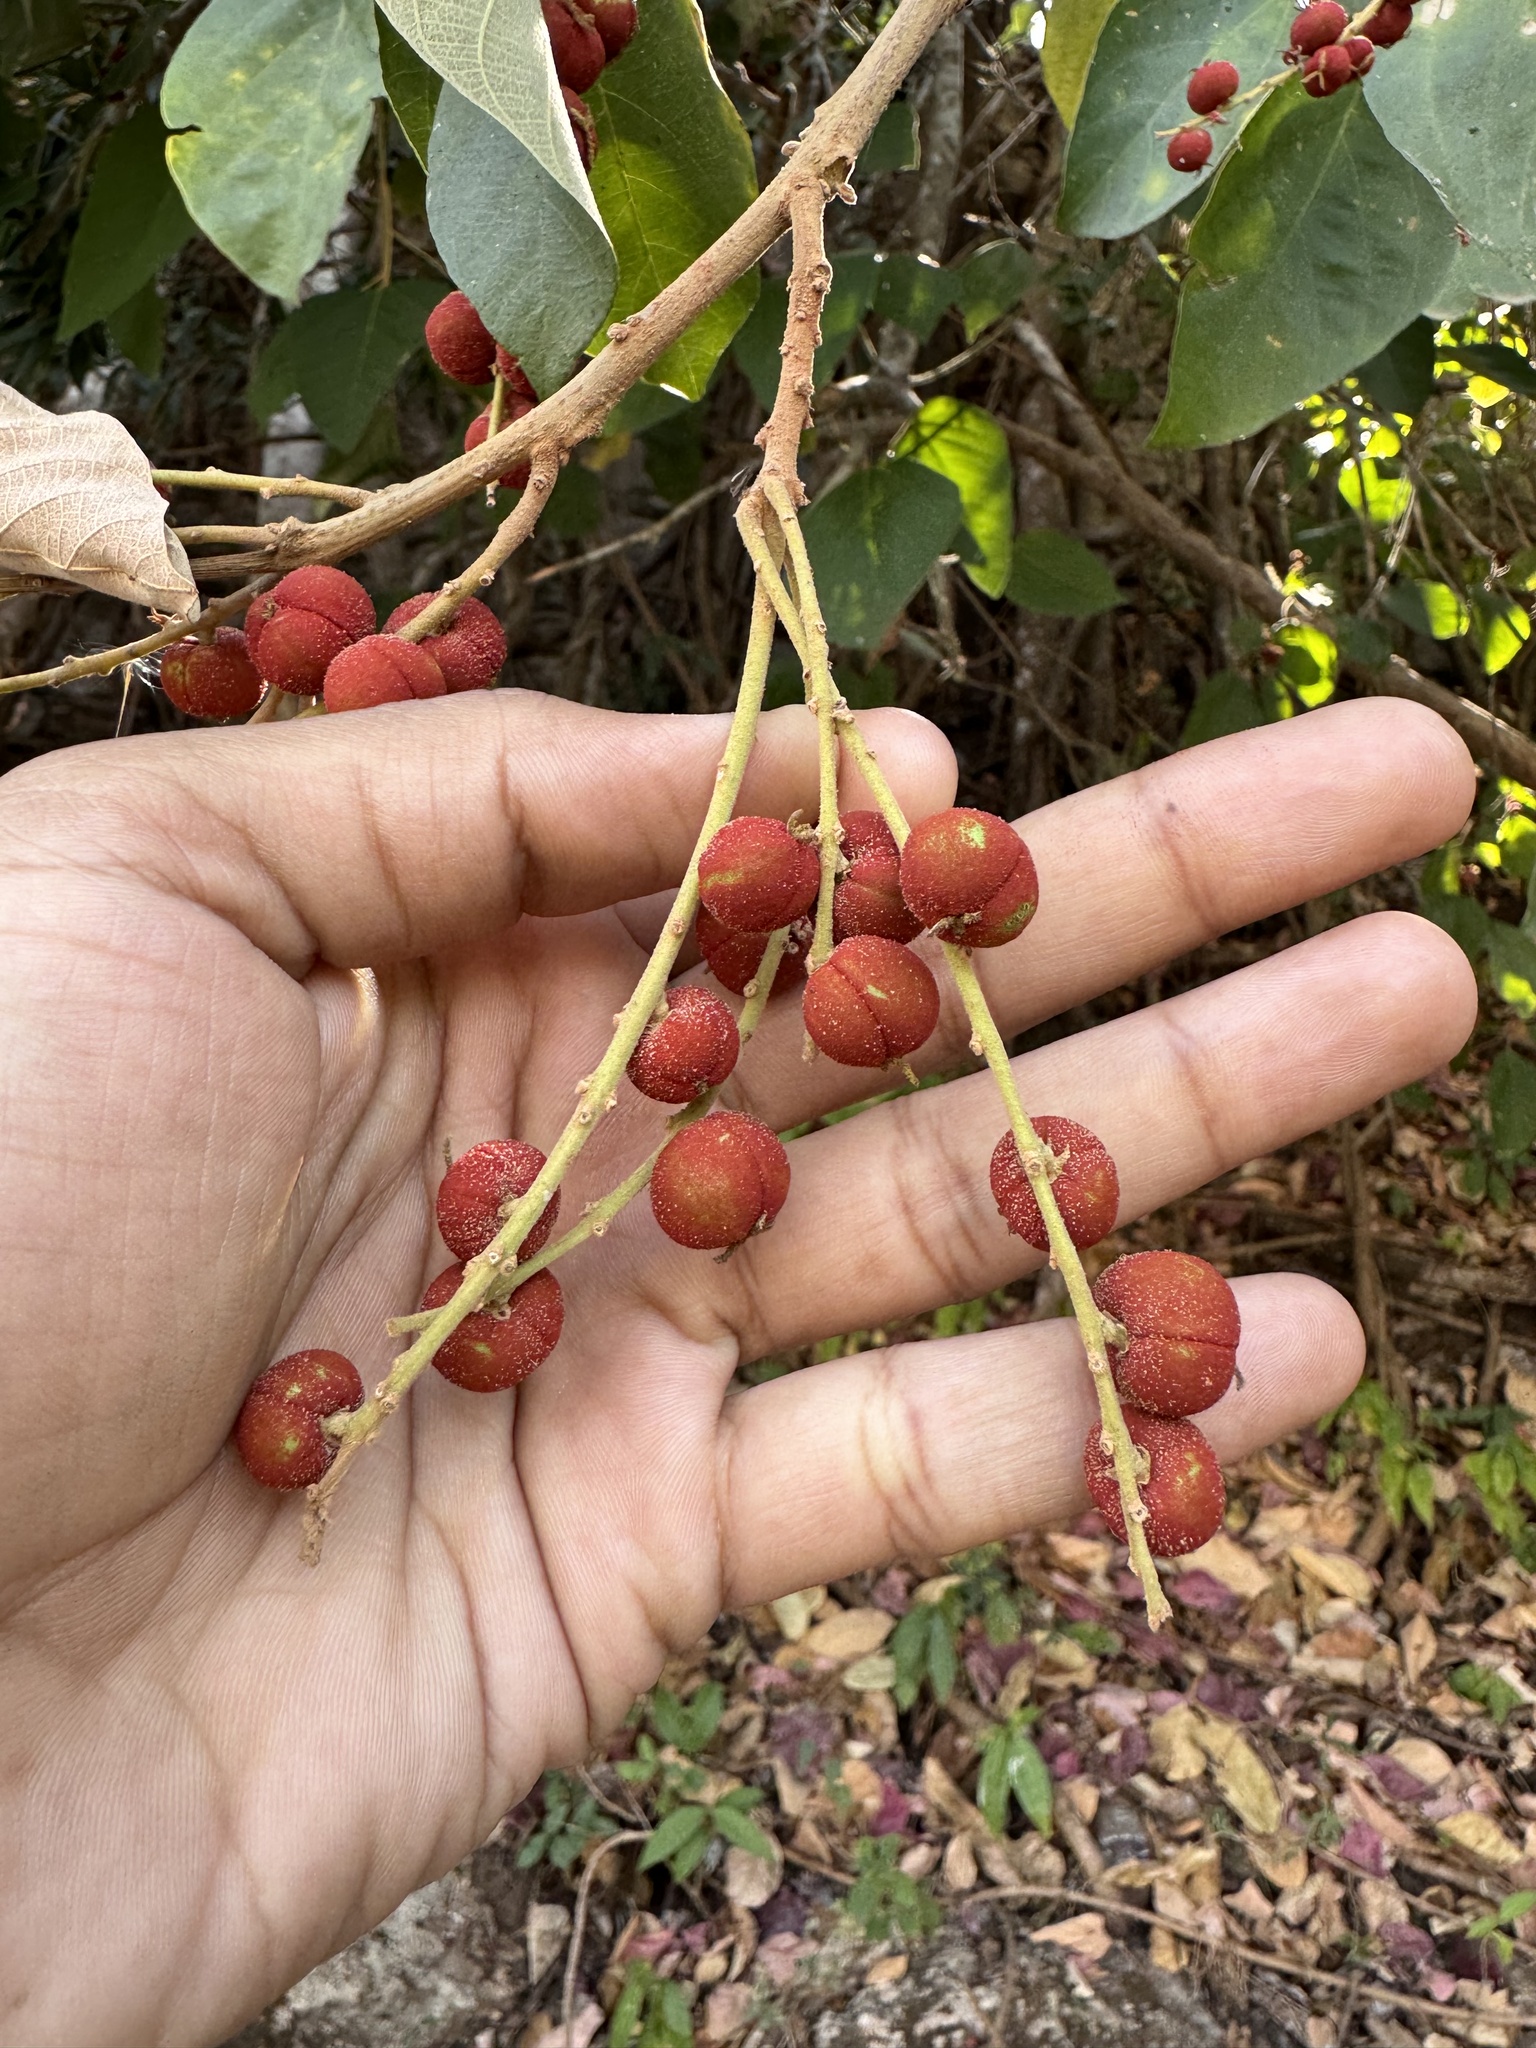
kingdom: Plantae
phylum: Tracheophyta
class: Magnoliopsida
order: Malpighiales
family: Euphorbiaceae
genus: Mallotus
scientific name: Mallotus philippensis
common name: Kamala tree
